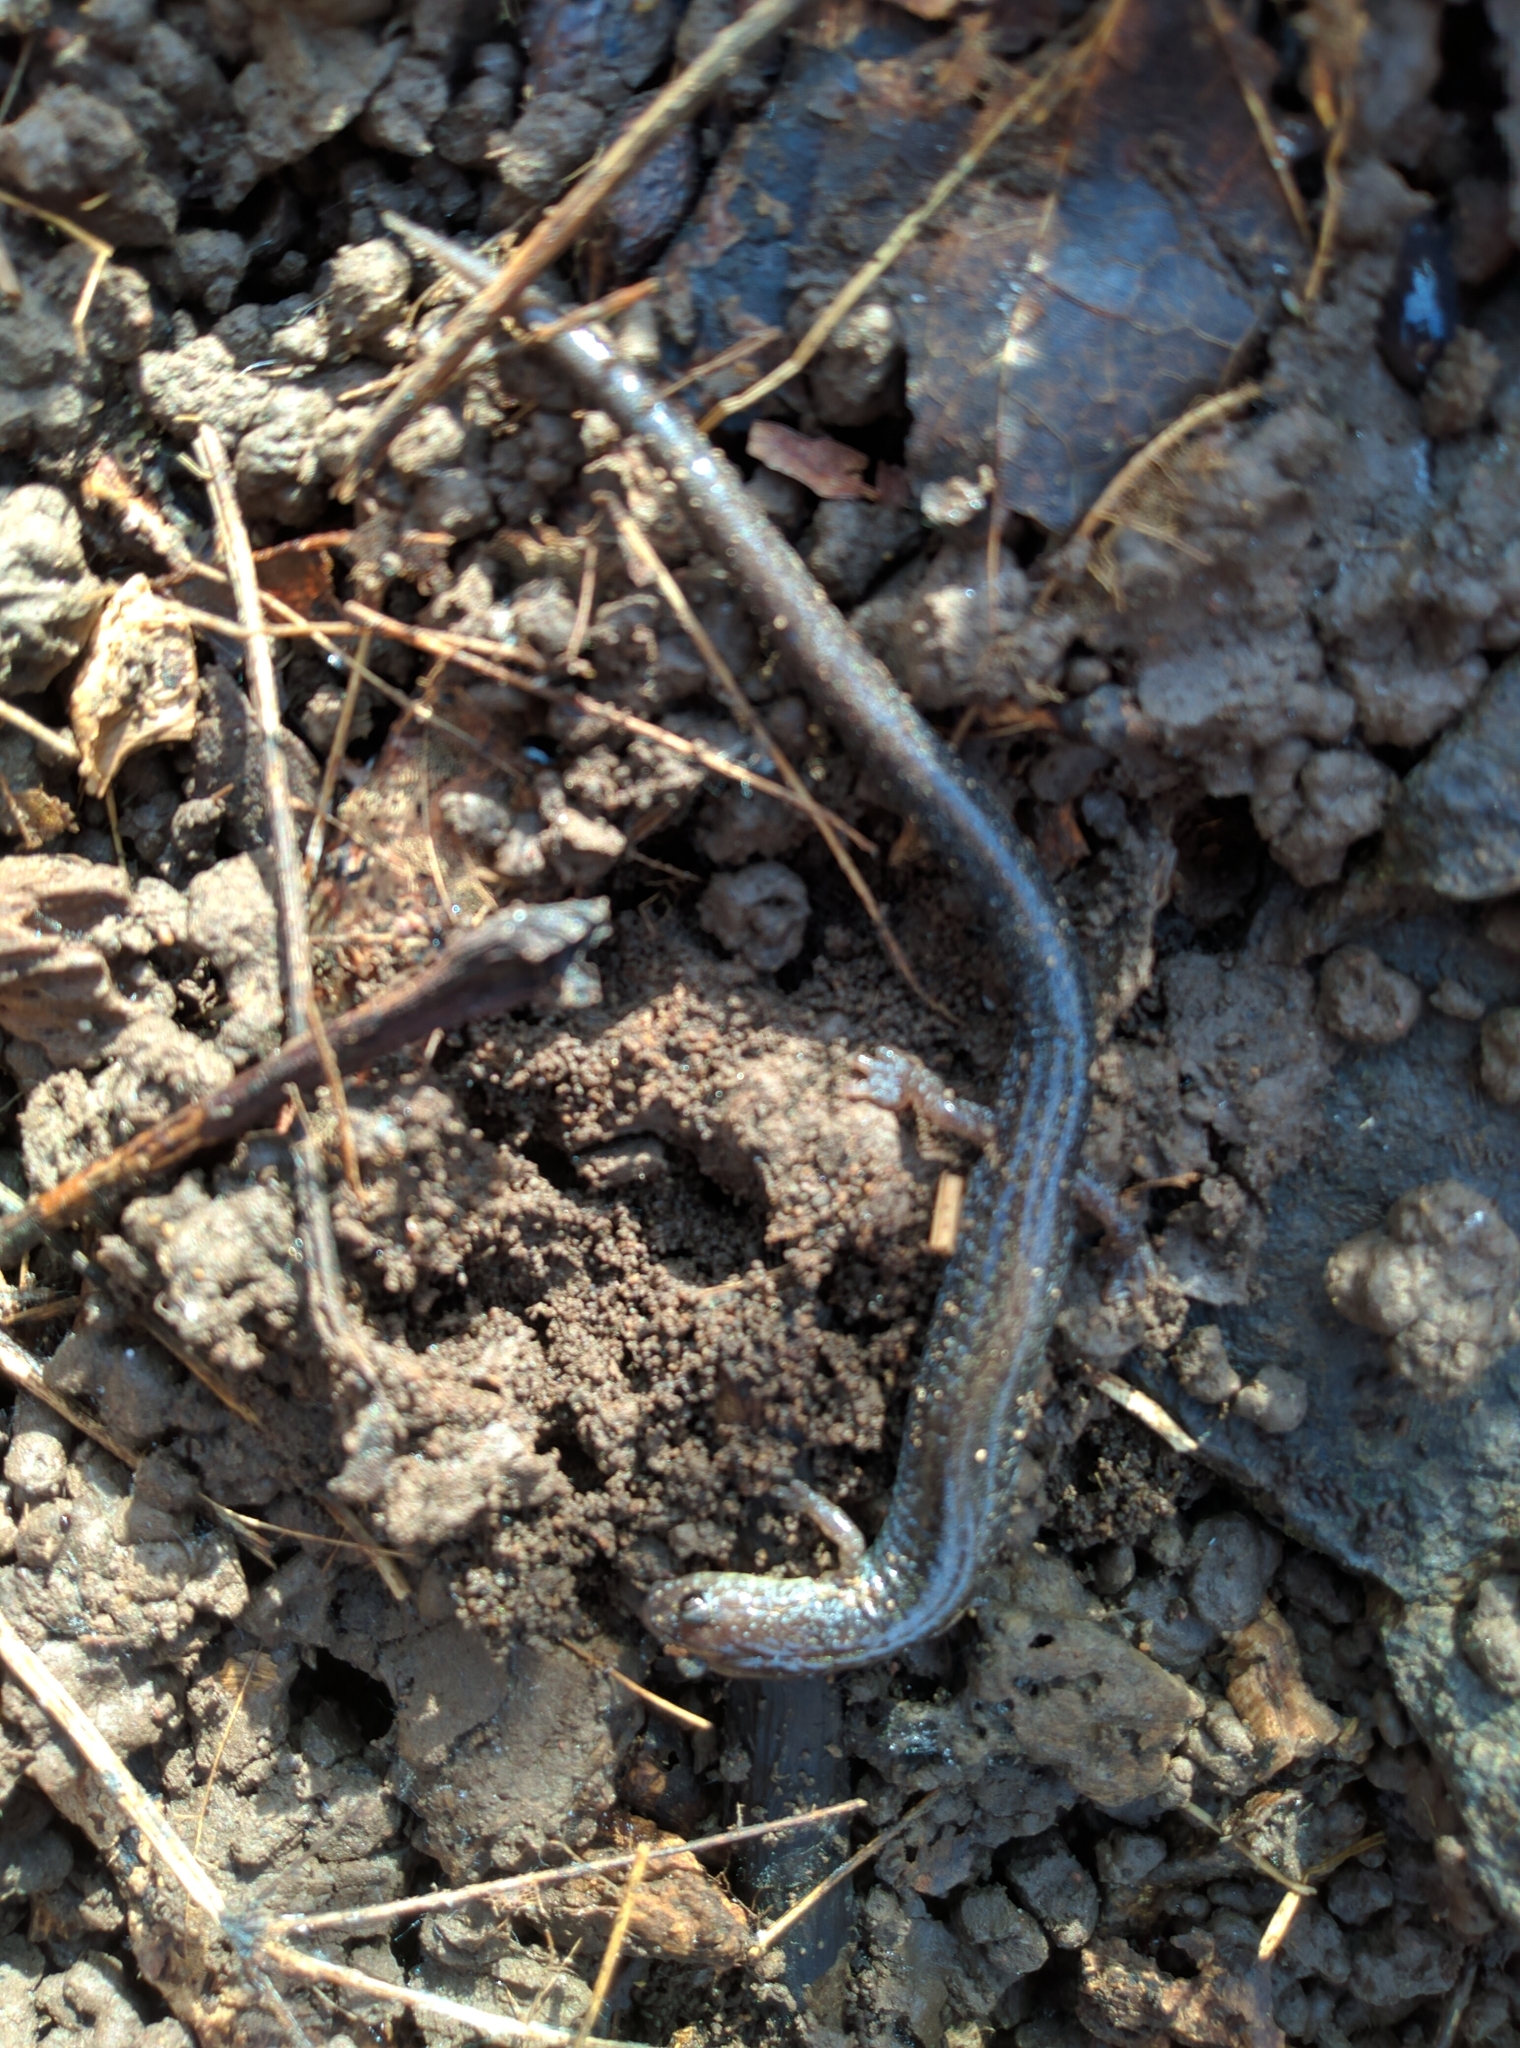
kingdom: Animalia
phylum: Chordata
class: Amphibia
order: Caudata
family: Plethodontidae
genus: Plethodon
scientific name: Plethodon cinereus
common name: Redback salamander
